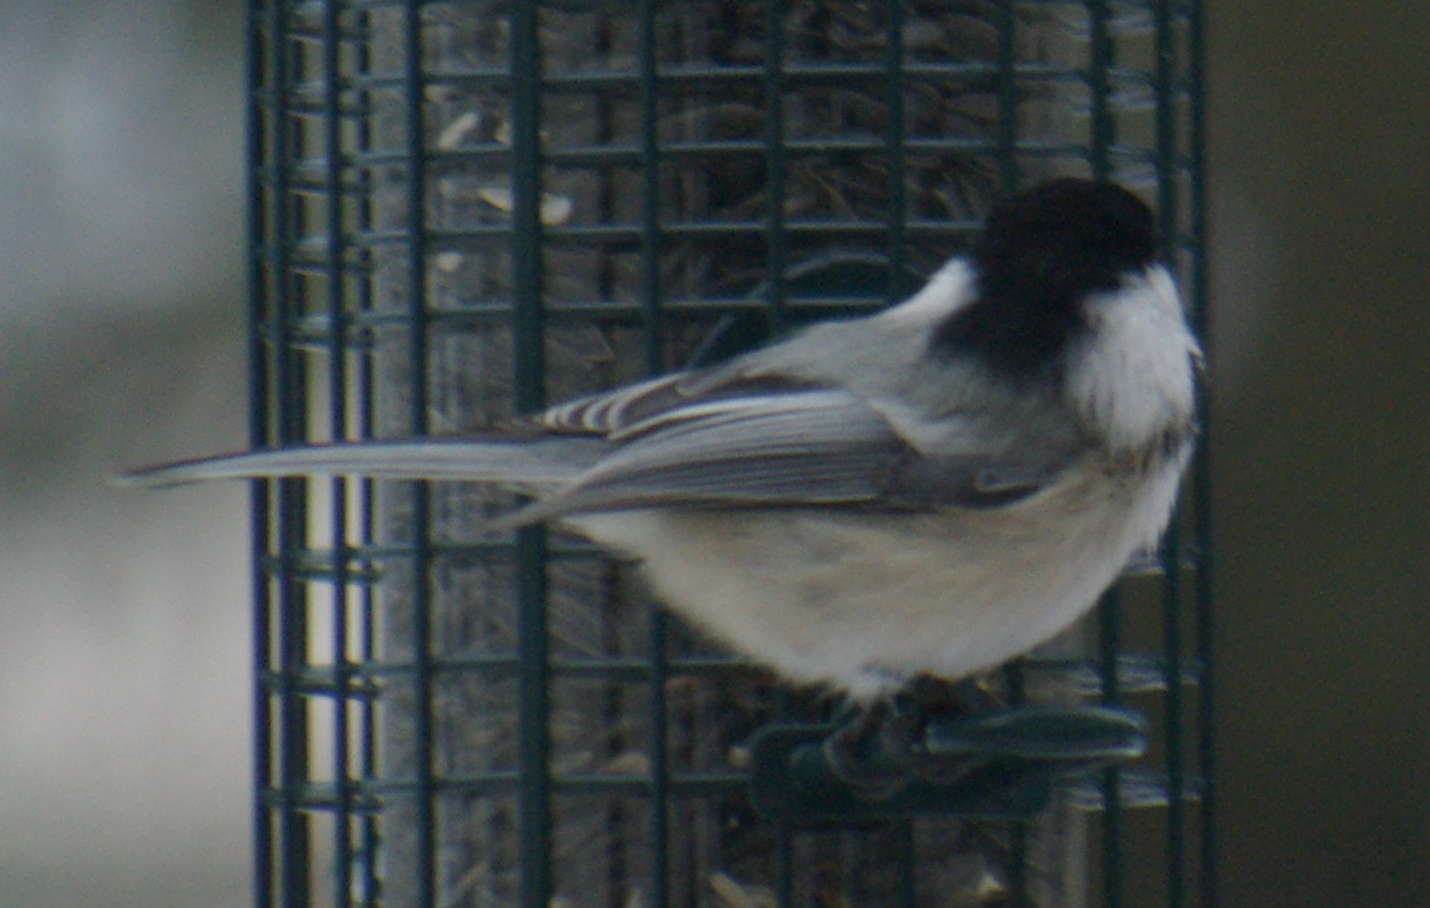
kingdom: Animalia
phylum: Chordata
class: Aves
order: Passeriformes
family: Paridae
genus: Poecile
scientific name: Poecile atricapillus
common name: Black-capped chickadee
